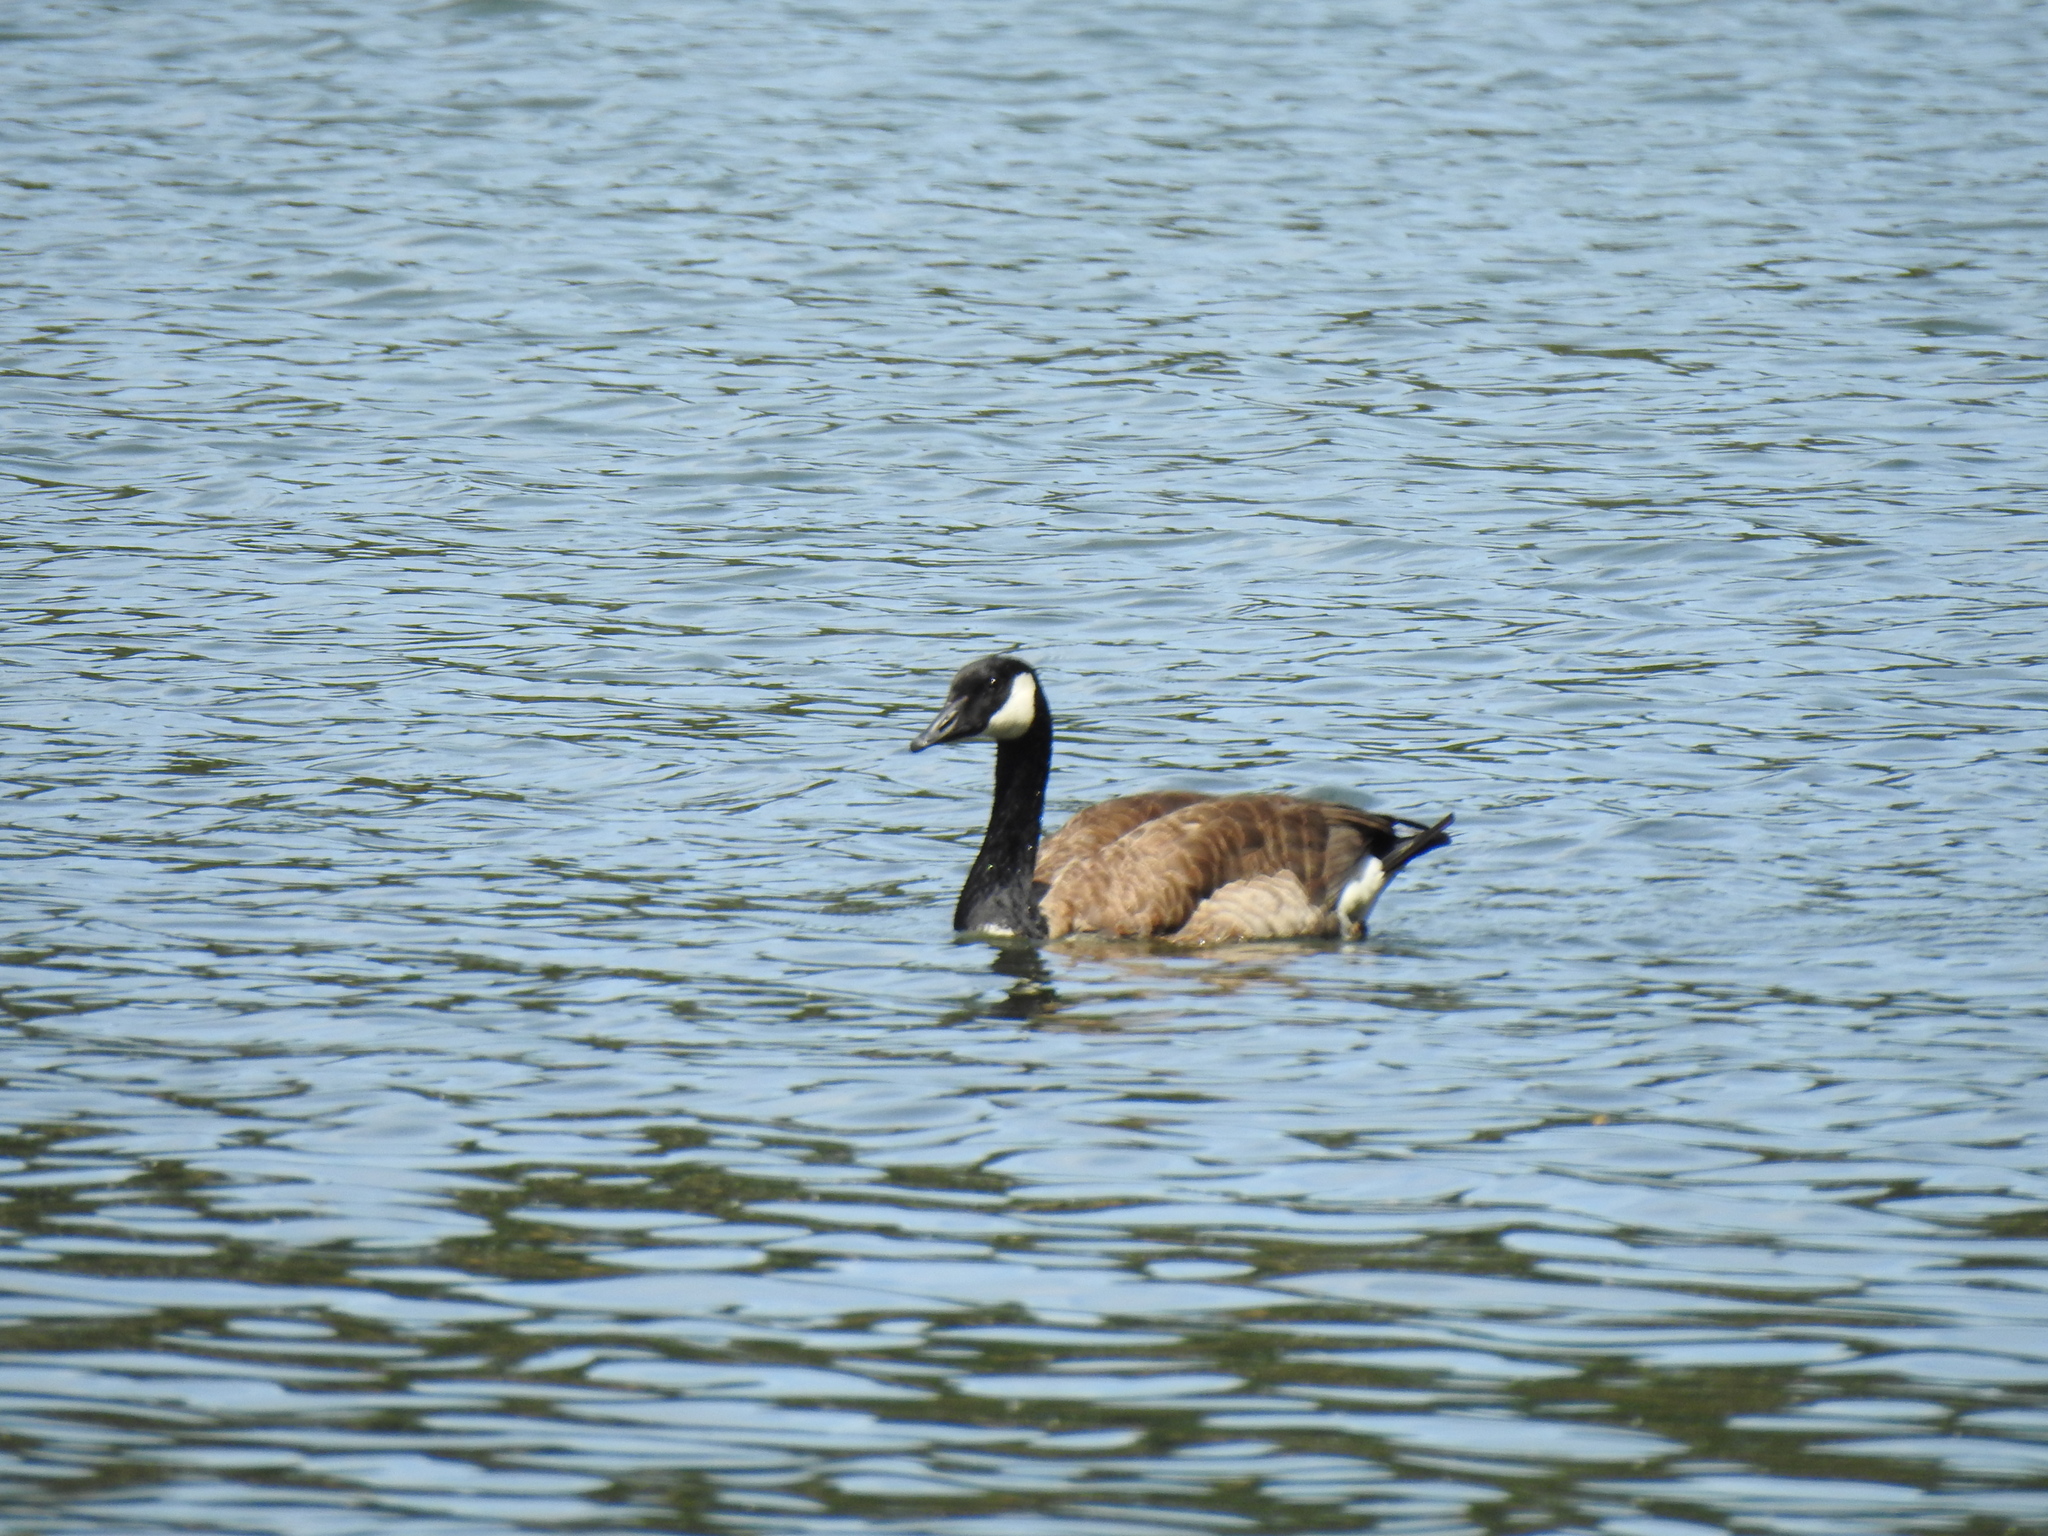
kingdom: Animalia
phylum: Chordata
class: Aves
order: Anseriformes
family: Anatidae
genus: Branta
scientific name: Branta canadensis
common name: Canada goose
